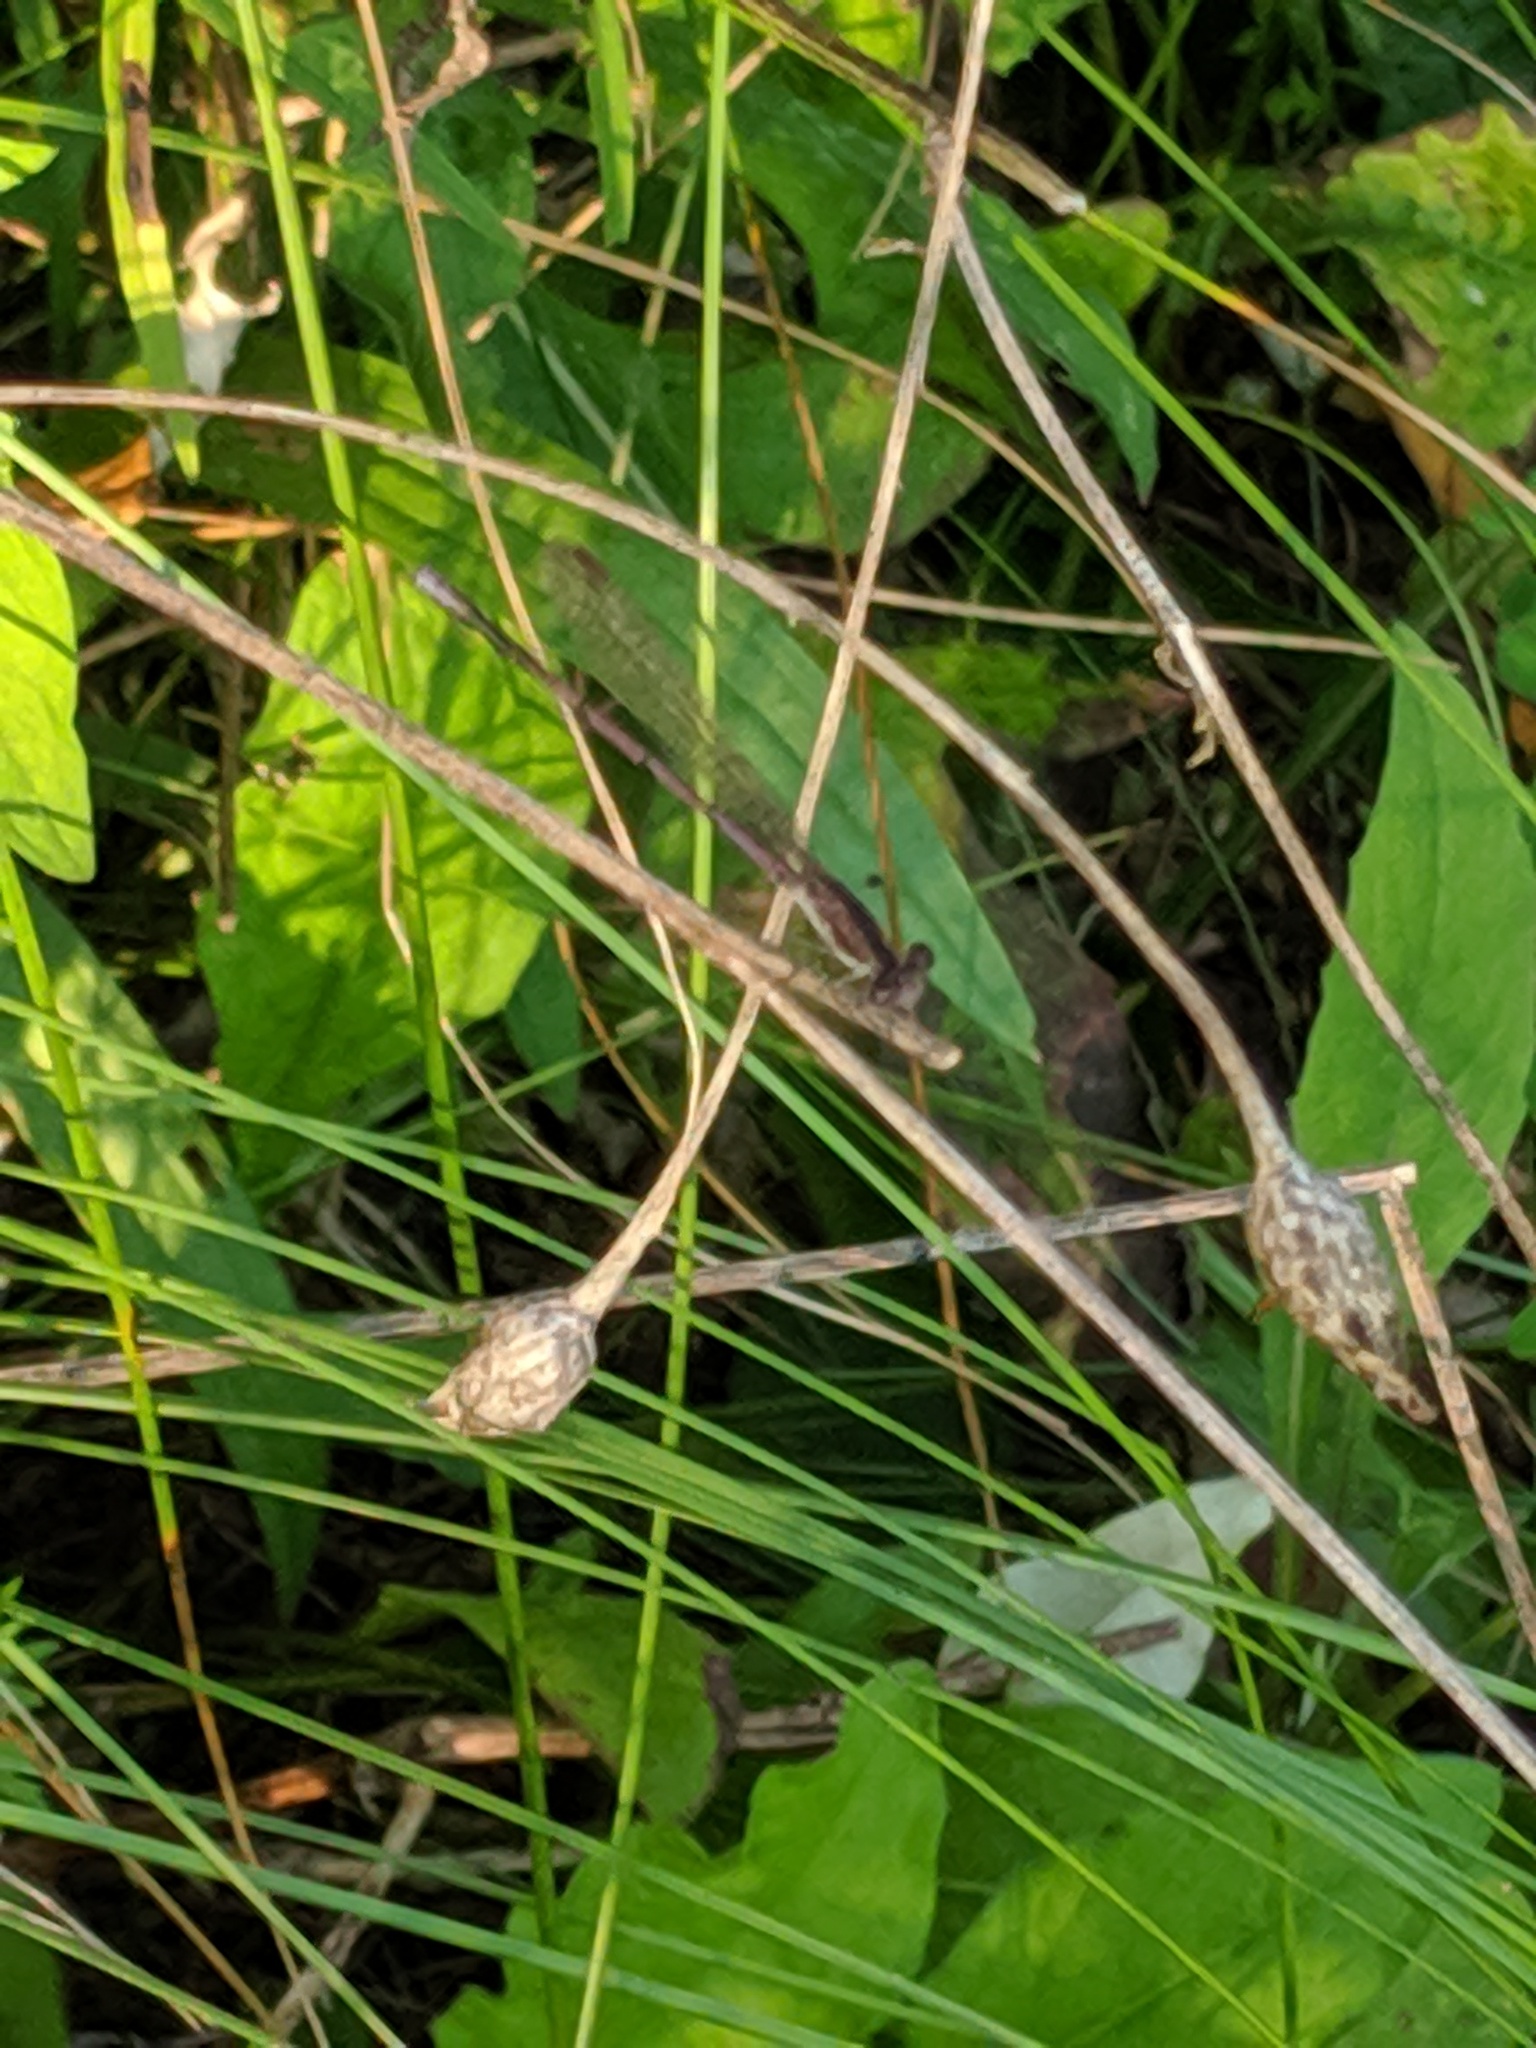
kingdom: Animalia
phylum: Arthropoda
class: Insecta
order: Odonata
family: Coenagrionidae
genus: Argia
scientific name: Argia fumipennis
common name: Variable dancer
